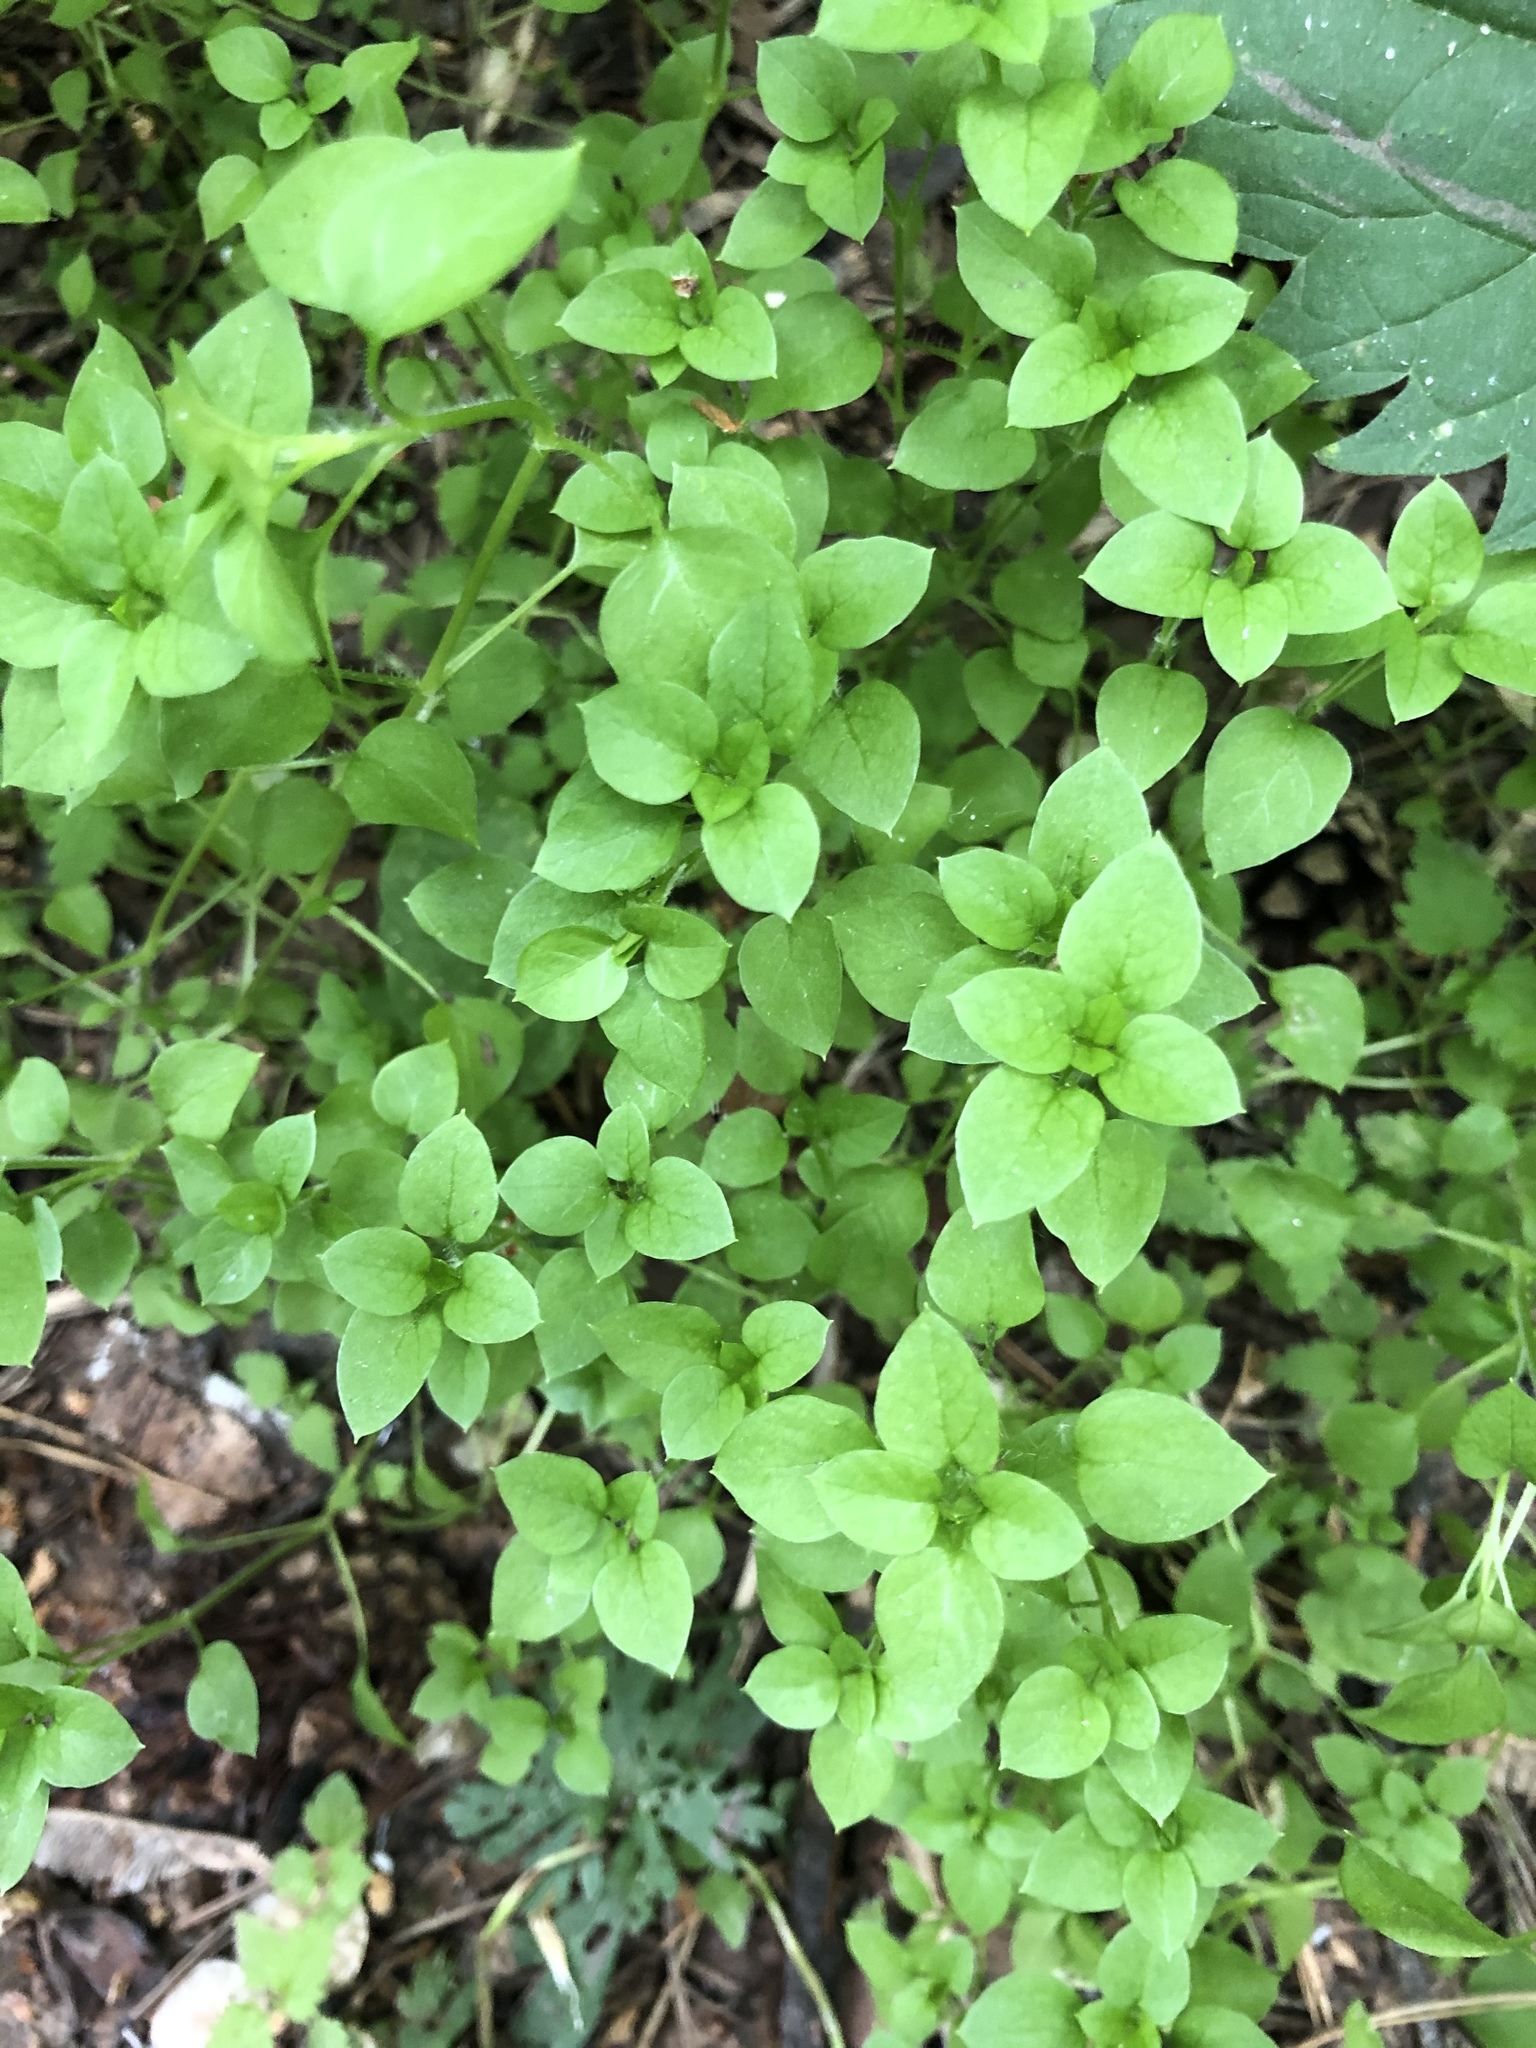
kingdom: Plantae
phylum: Tracheophyta
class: Magnoliopsida
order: Caryophyllales
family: Caryophyllaceae
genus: Stellaria
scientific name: Stellaria media
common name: Common chickweed
